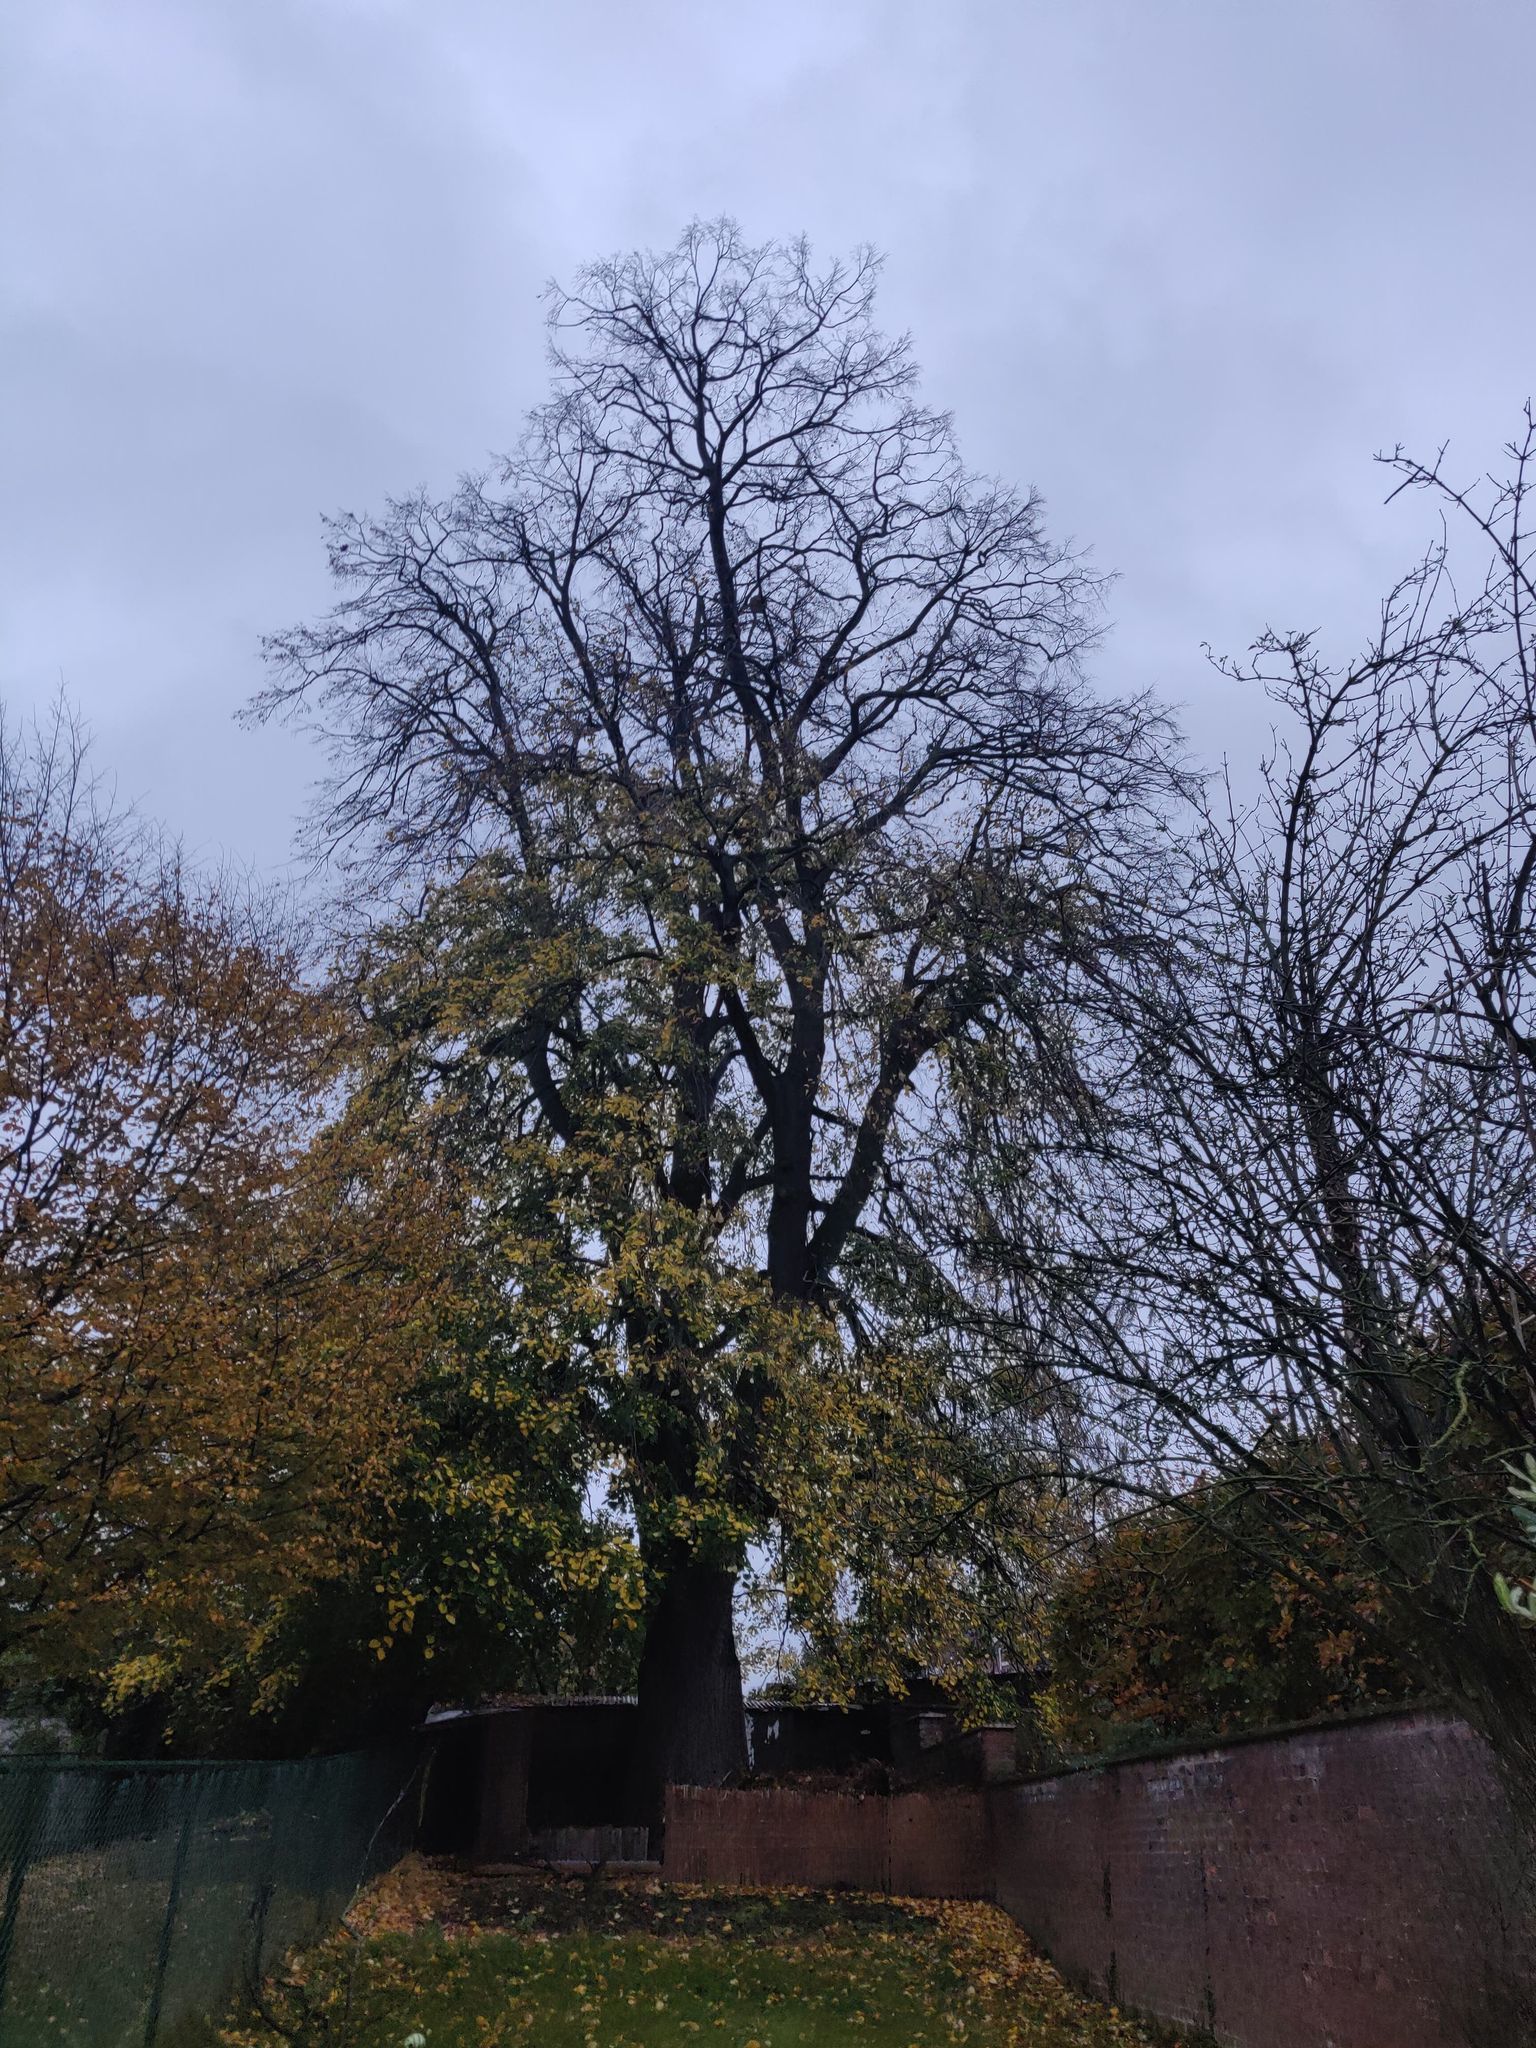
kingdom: Animalia
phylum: Arthropoda
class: Insecta
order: Hymenoptera
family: Vespidae
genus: Vespa
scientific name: Vespa velutina
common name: Asian hornet
